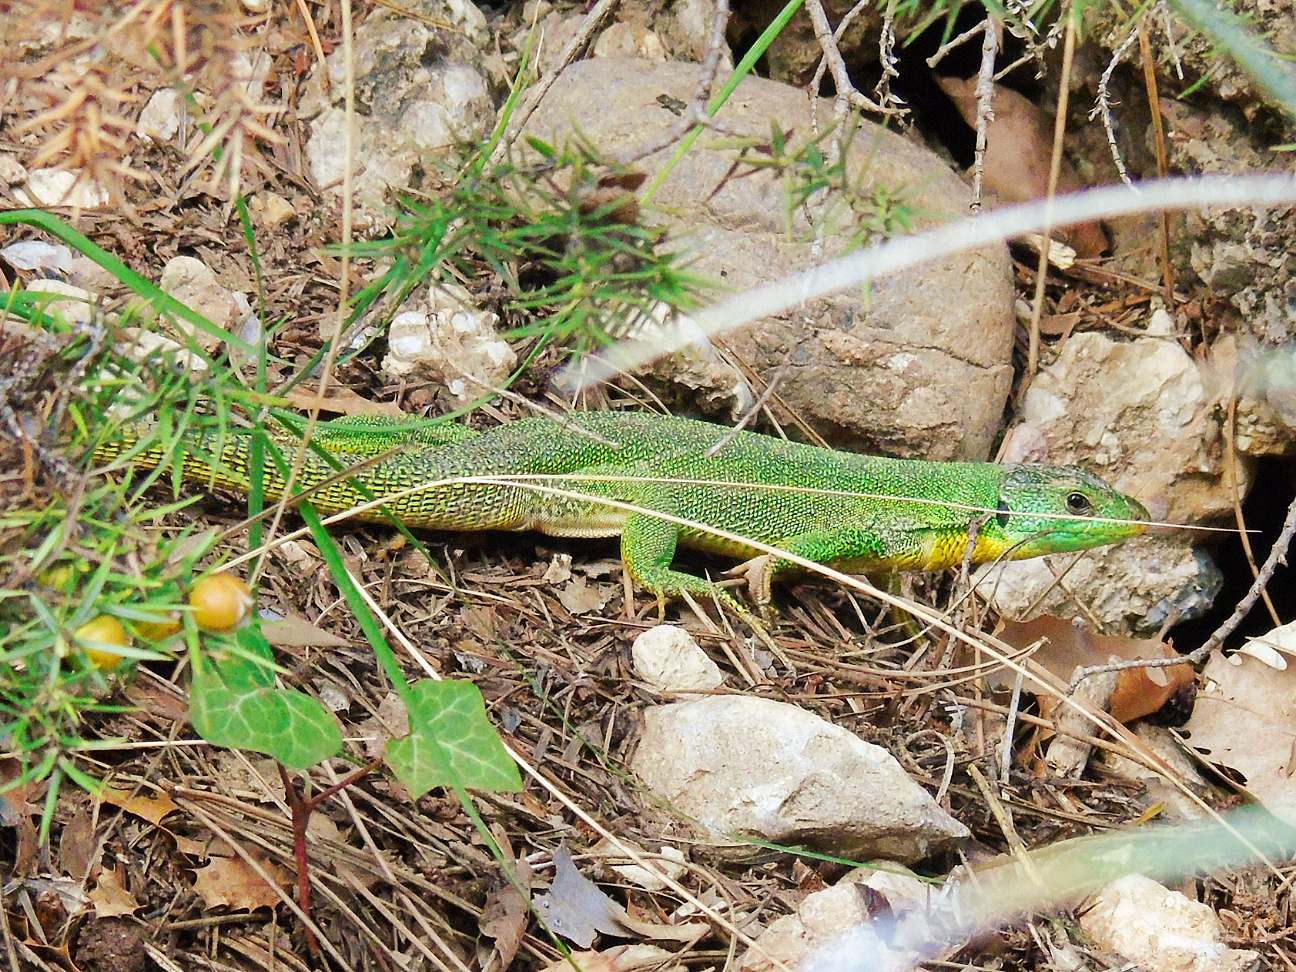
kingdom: Animalia
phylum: Chordata
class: Squamata
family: Lacertidae
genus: Lacerta
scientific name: Lacerta trilineata
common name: Balkan green lizard
